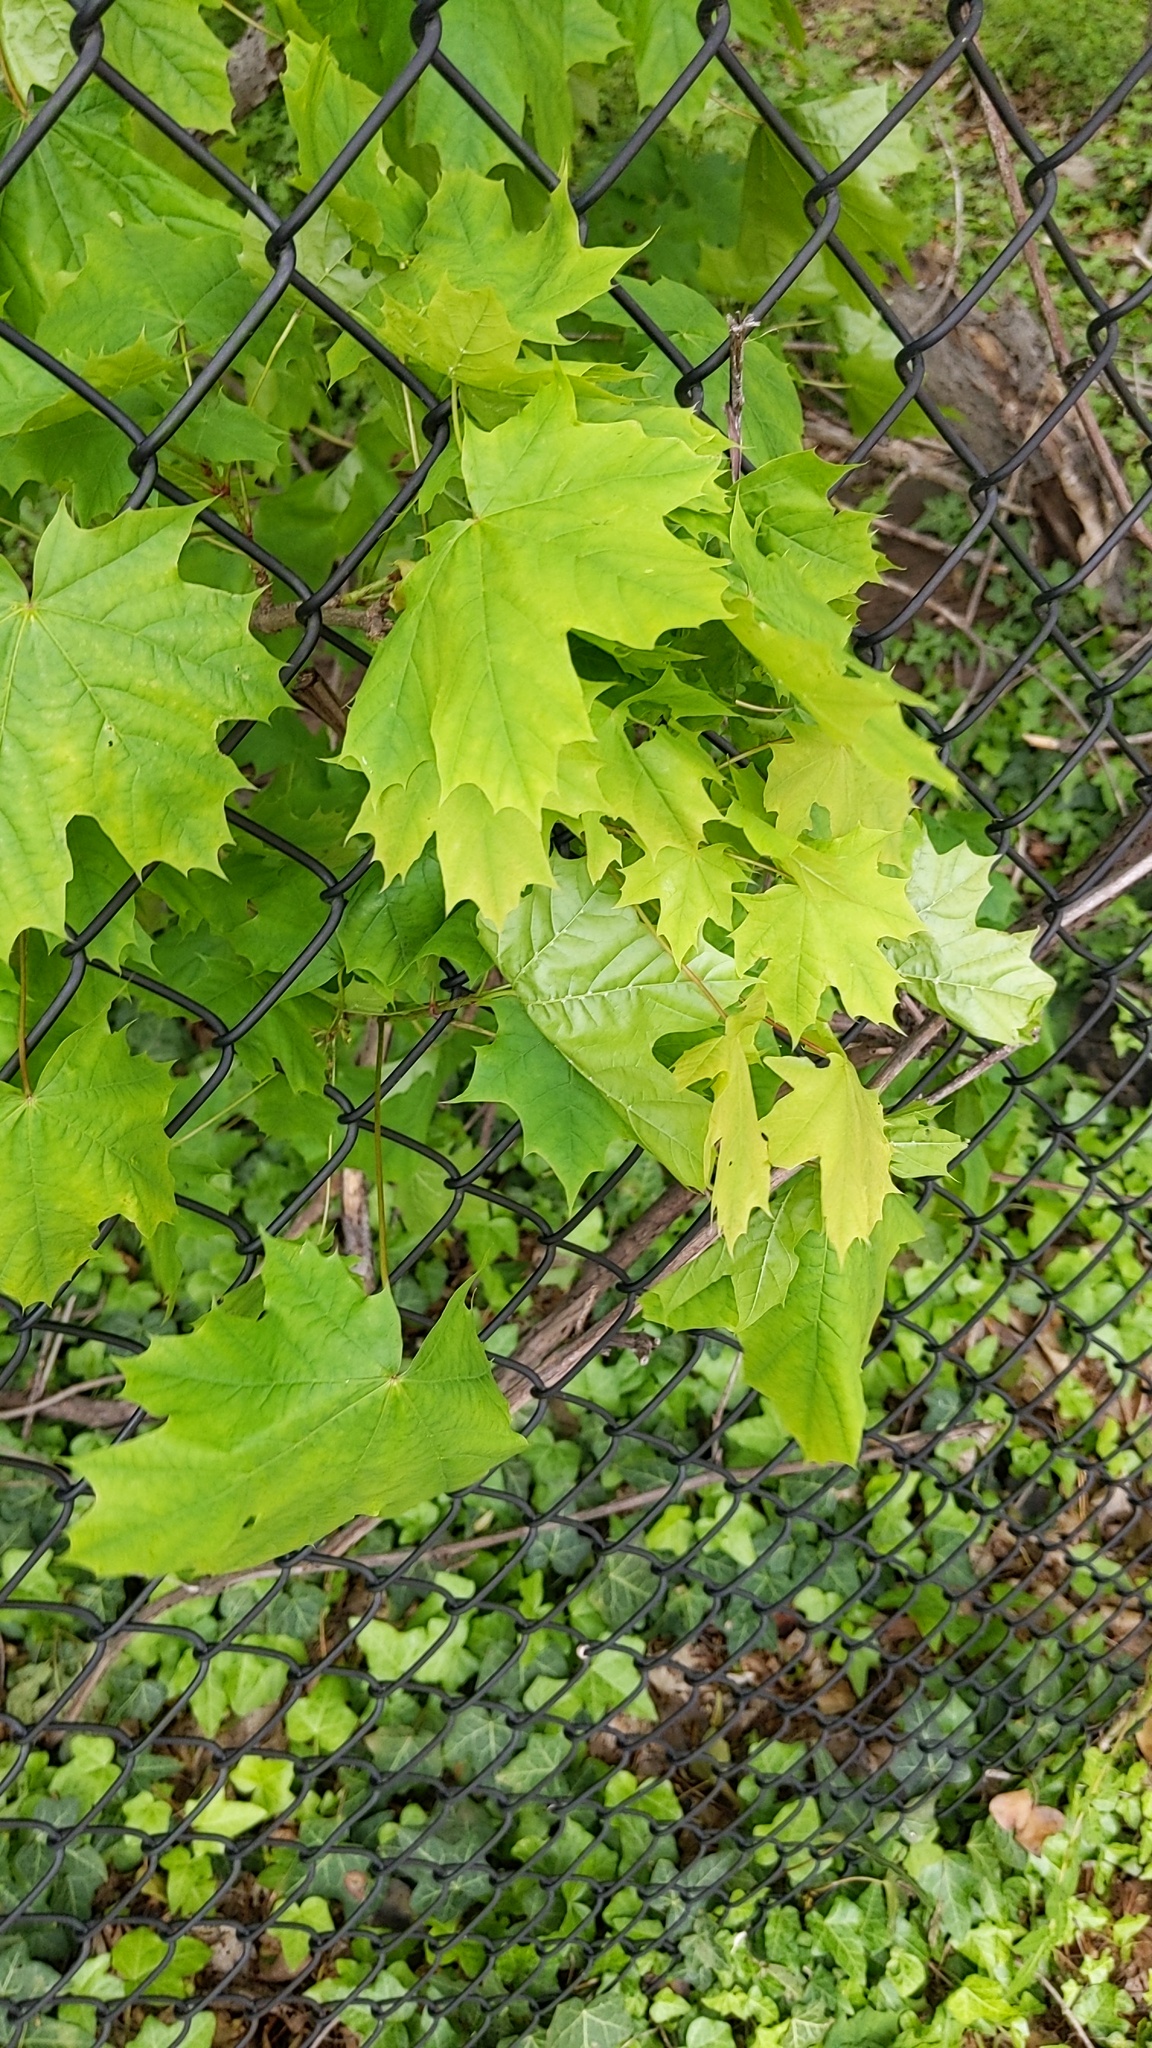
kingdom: Plantae
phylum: Tracheophyta
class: Magnoliopsida
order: Sapindales
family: Sapindaceae
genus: Acer
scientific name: Acer platanoides
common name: Norway maple
